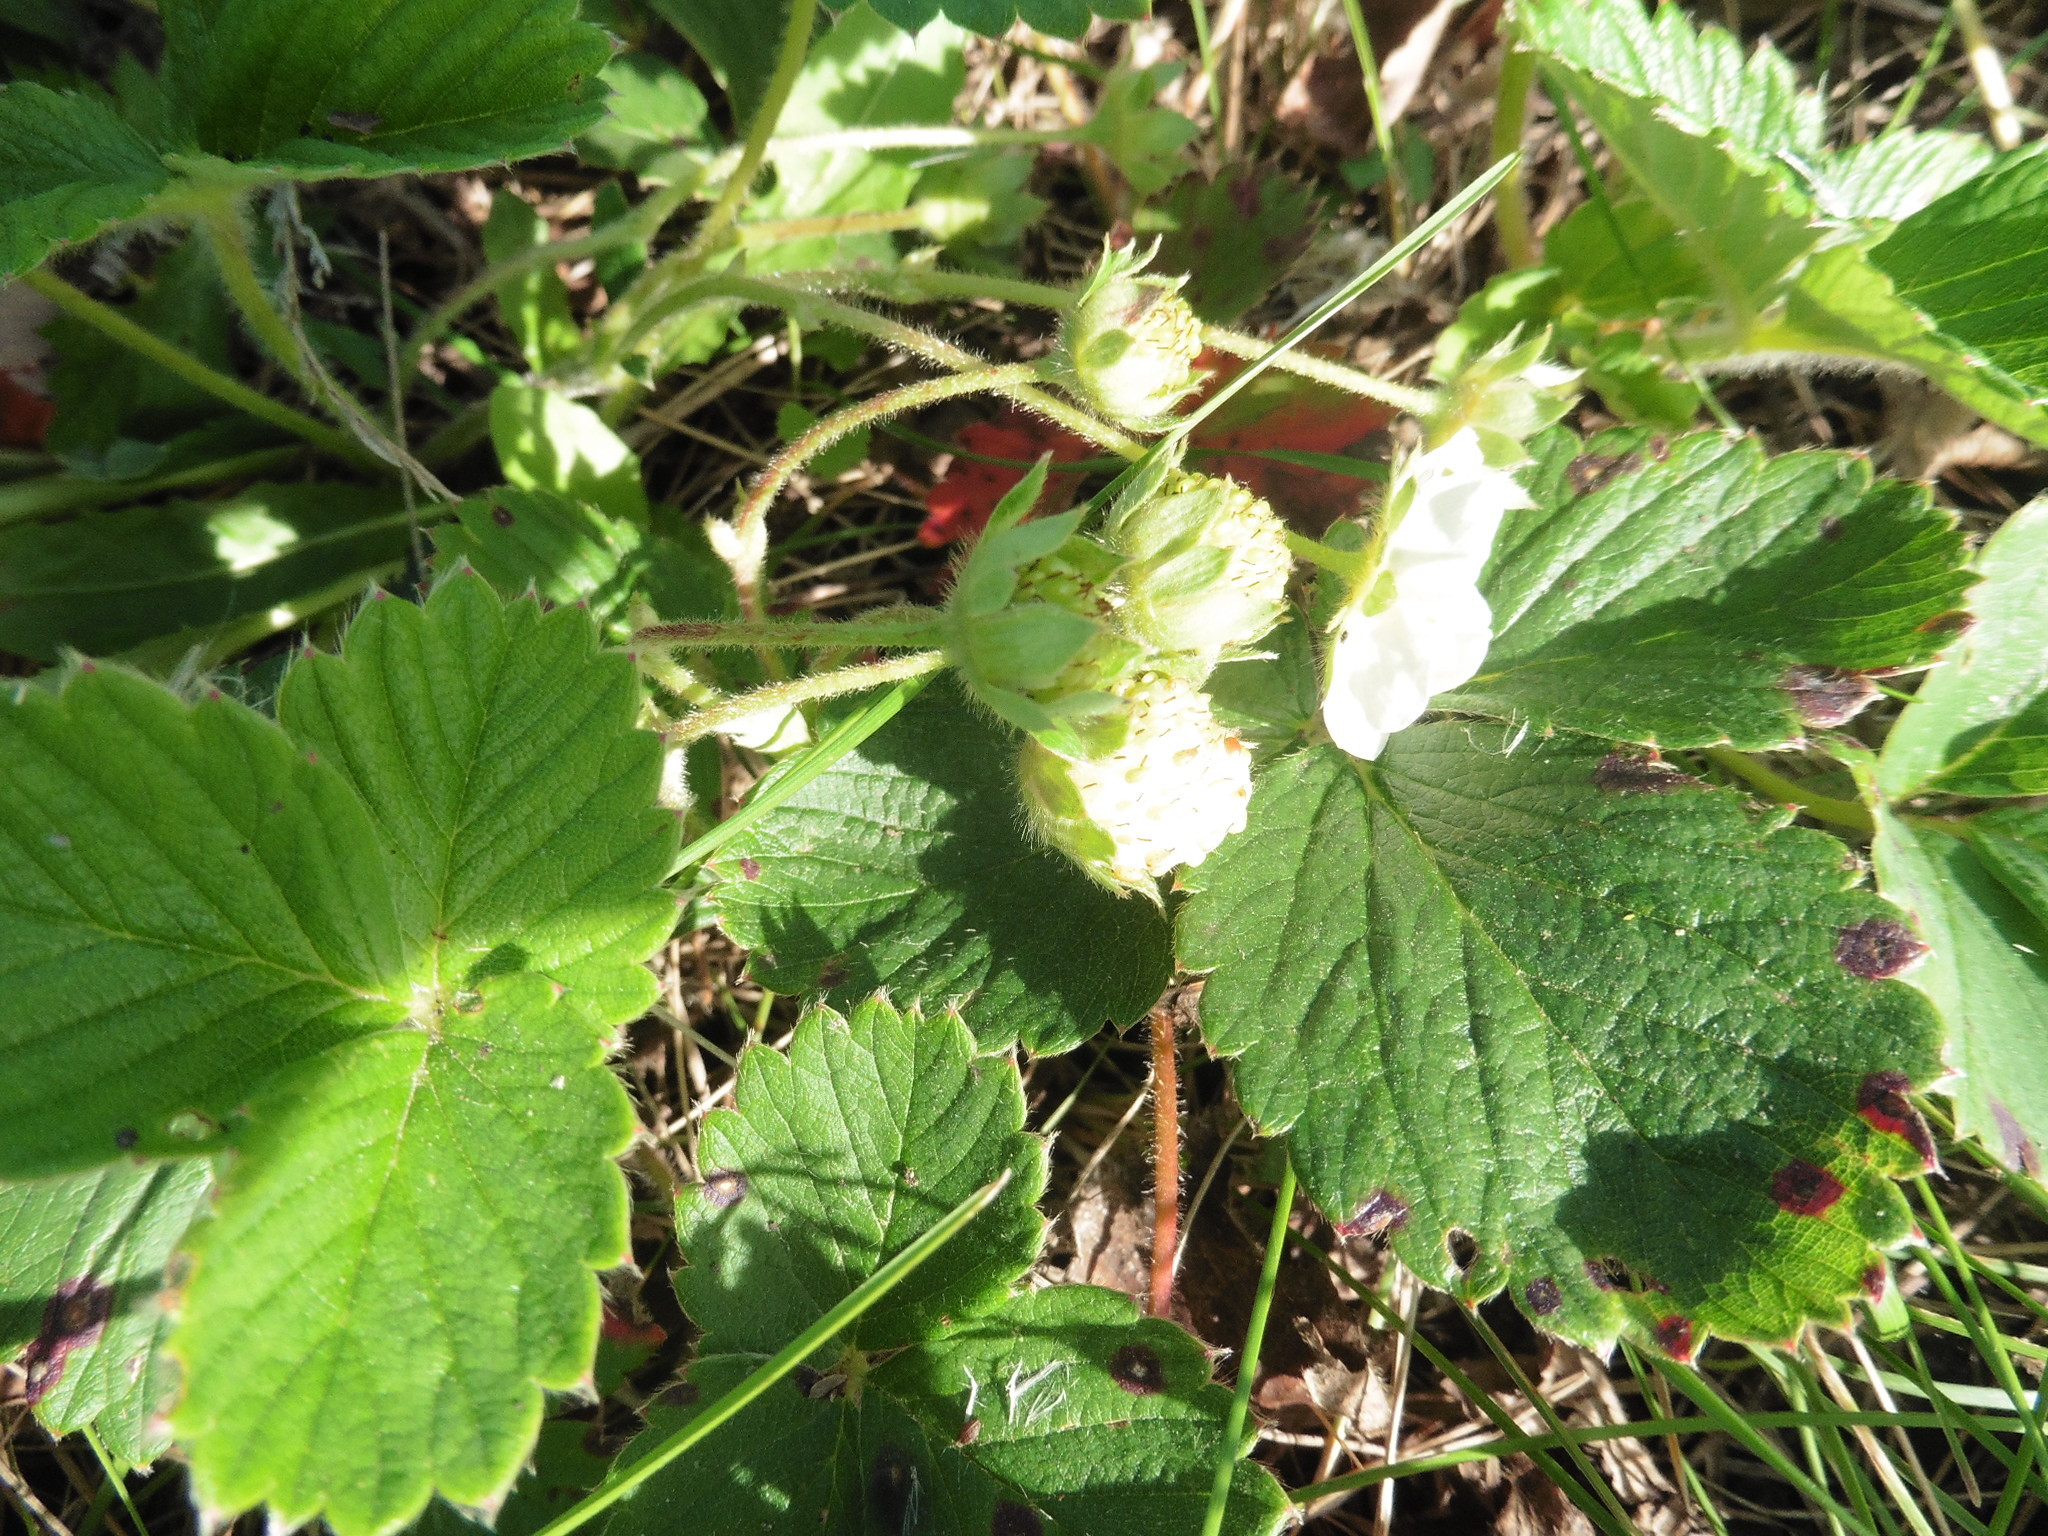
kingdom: Plantae
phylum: Tracheophyta
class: Magnoliopsida
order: Rosales
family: Rosaceae
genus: Fragaria
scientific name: Fragaria ananassa
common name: Garden strawberry
